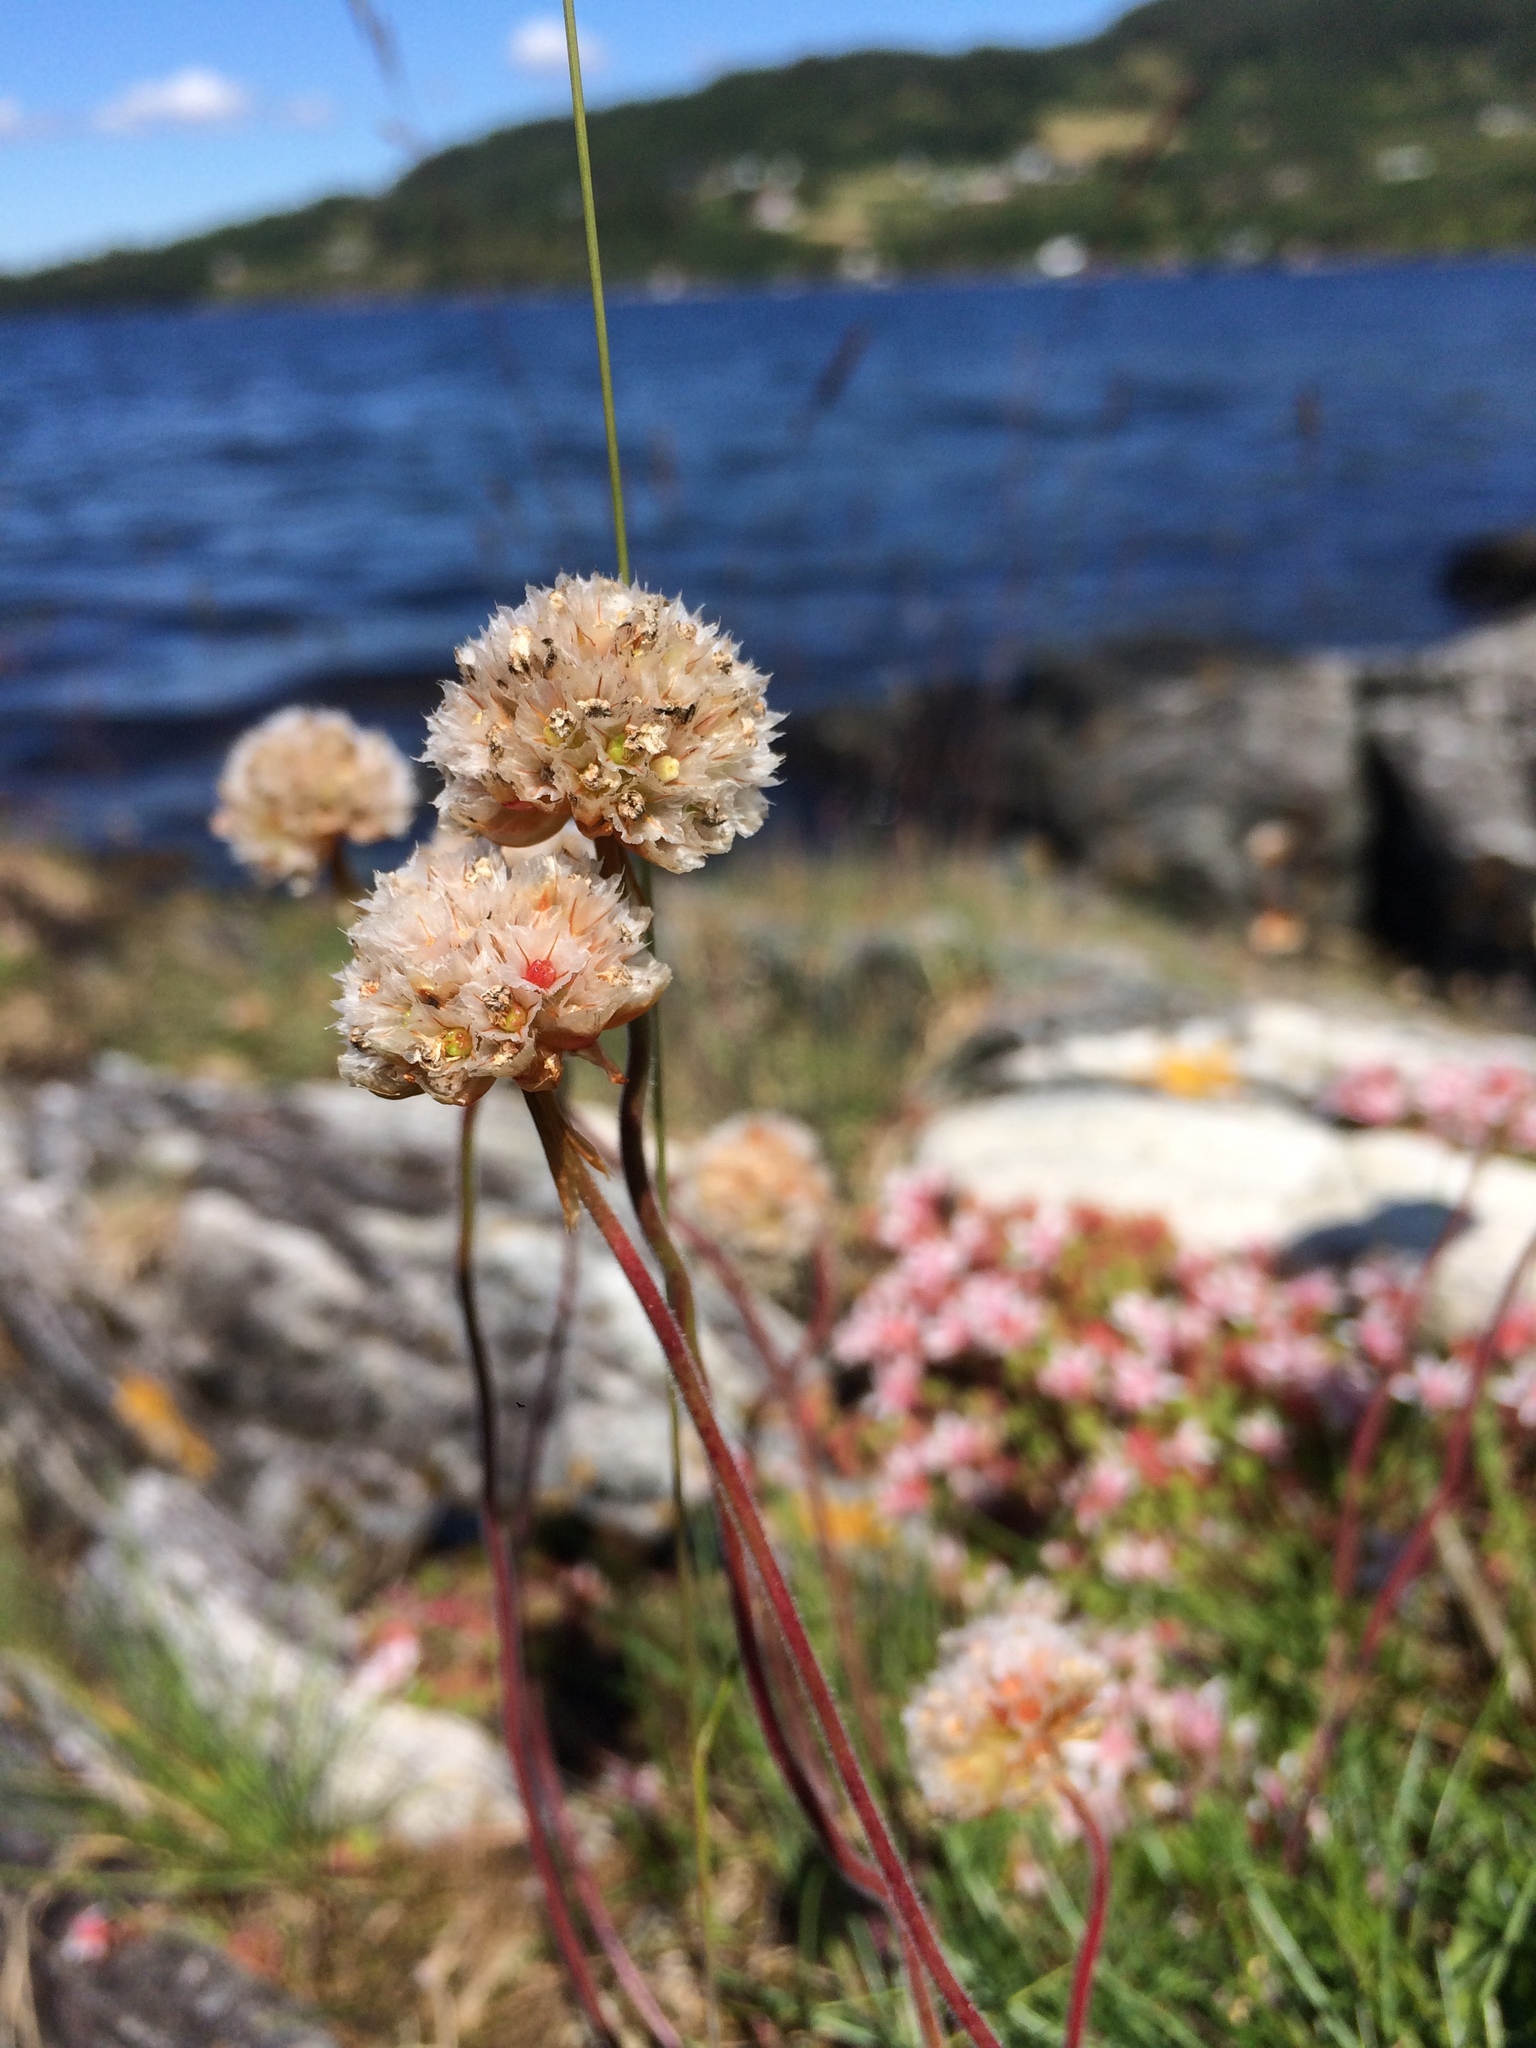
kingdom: Plantae
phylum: Tracheophyta
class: Magnoliopsida
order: Caryophyllales
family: Plumbaginaceae
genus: Armeria
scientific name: Armeria maritima
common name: Thrift
